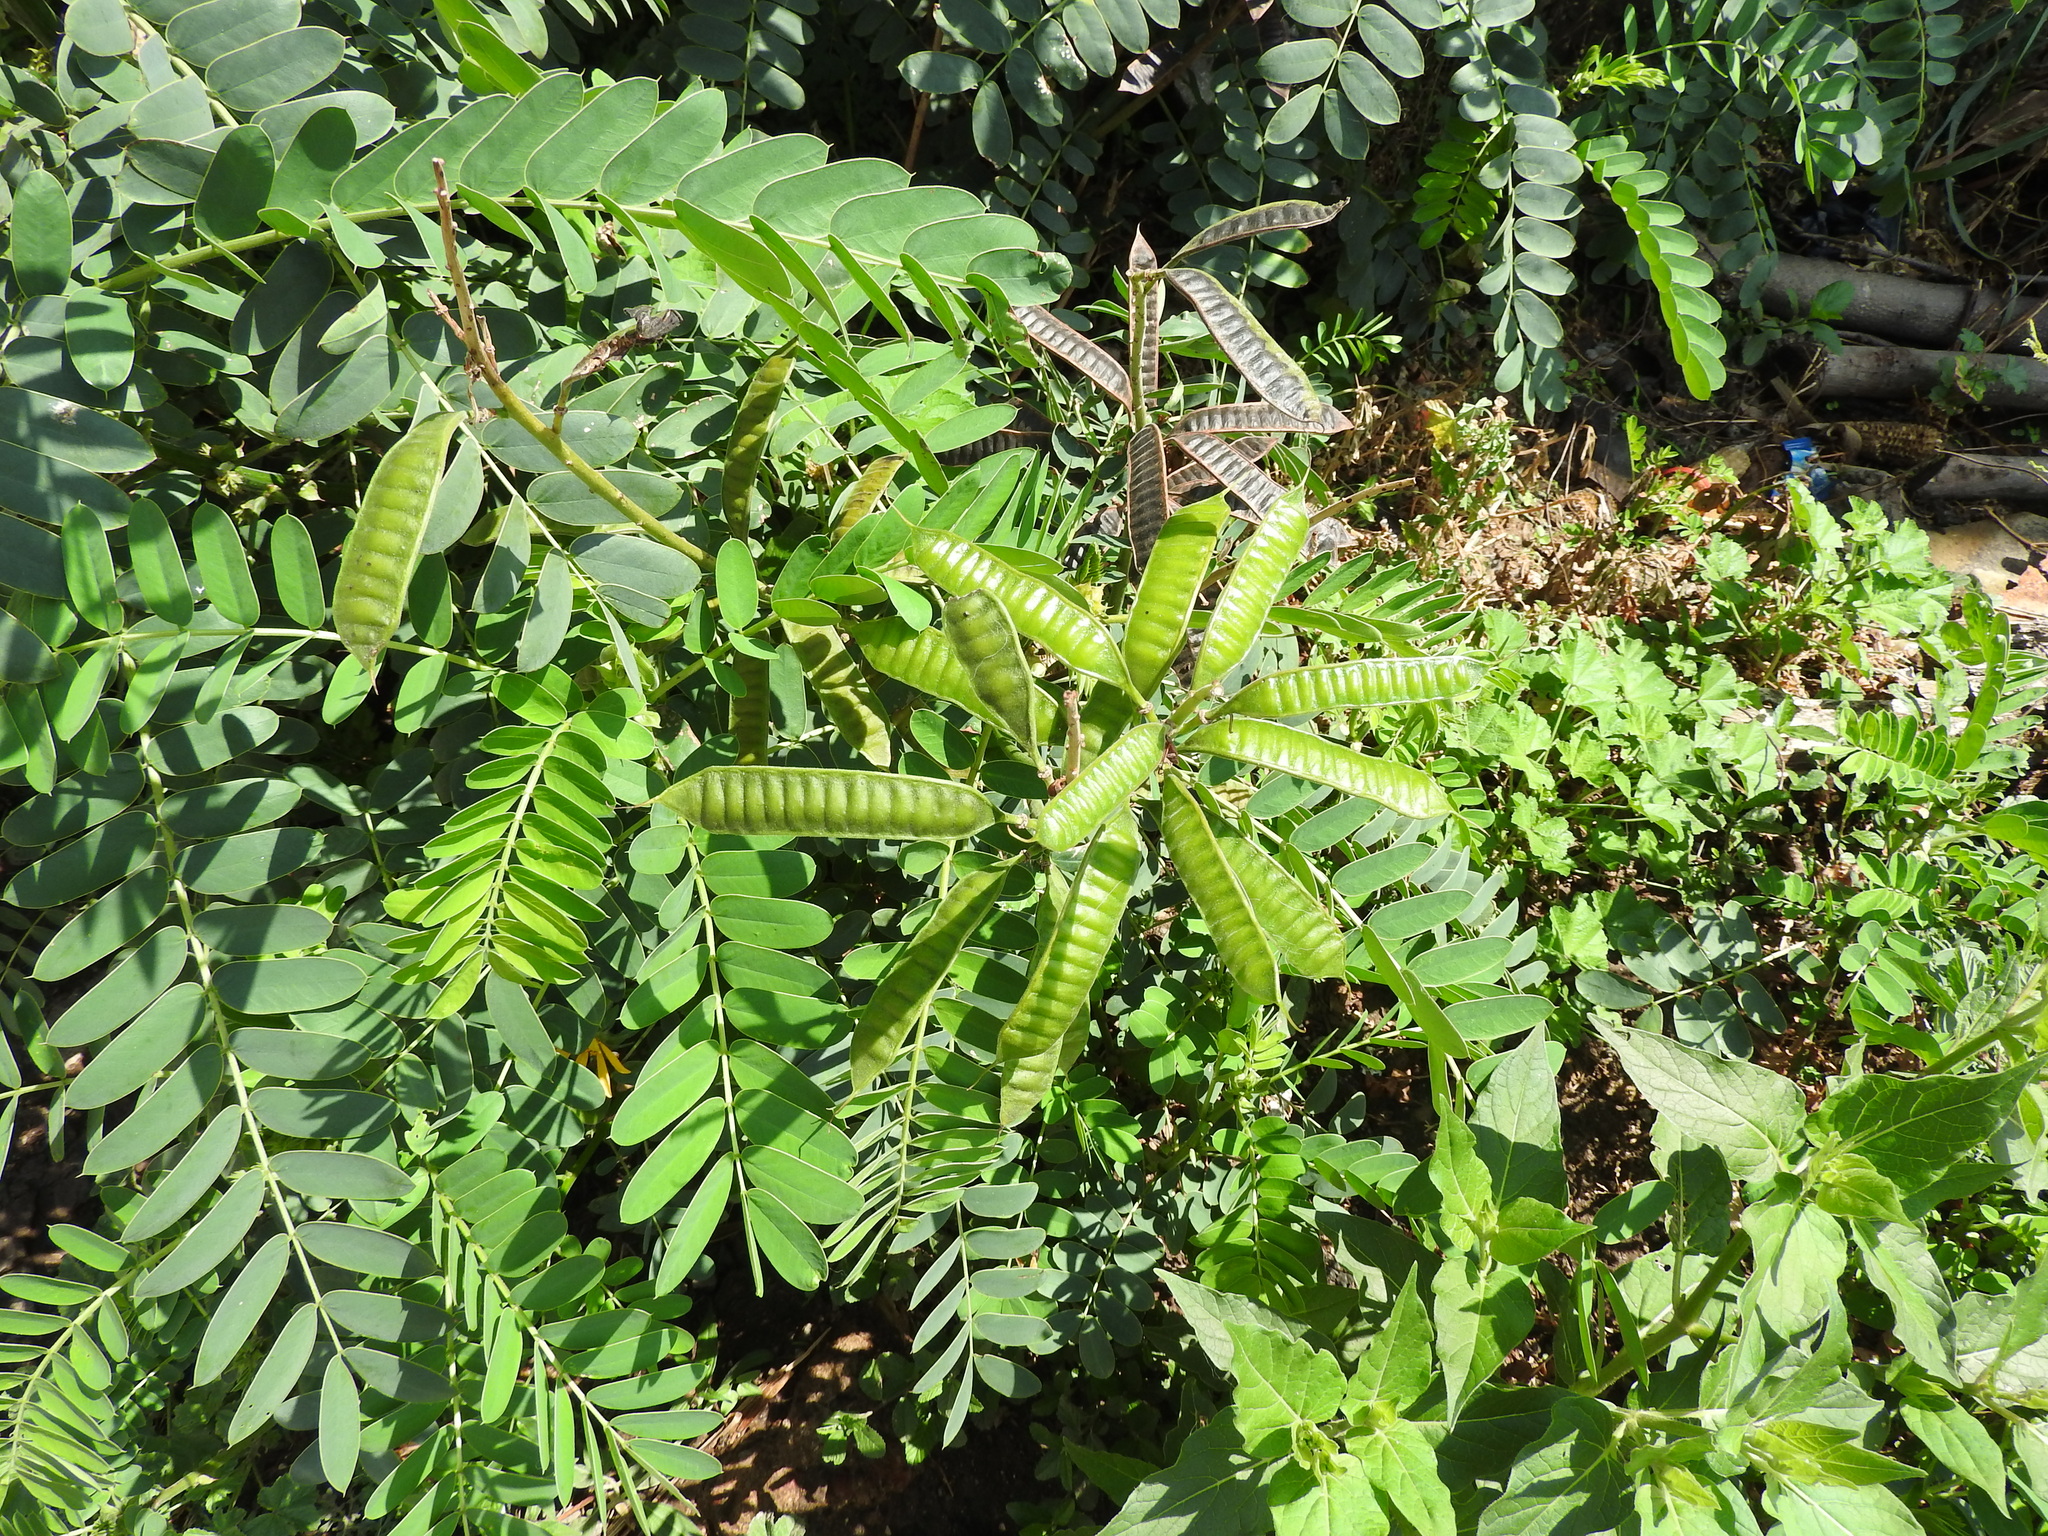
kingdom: Plantae
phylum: Tracheophyta
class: Magnoliopsida
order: Fabales
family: Fabaceae
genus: Senna
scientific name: Senna didymobotrya
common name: African senna
